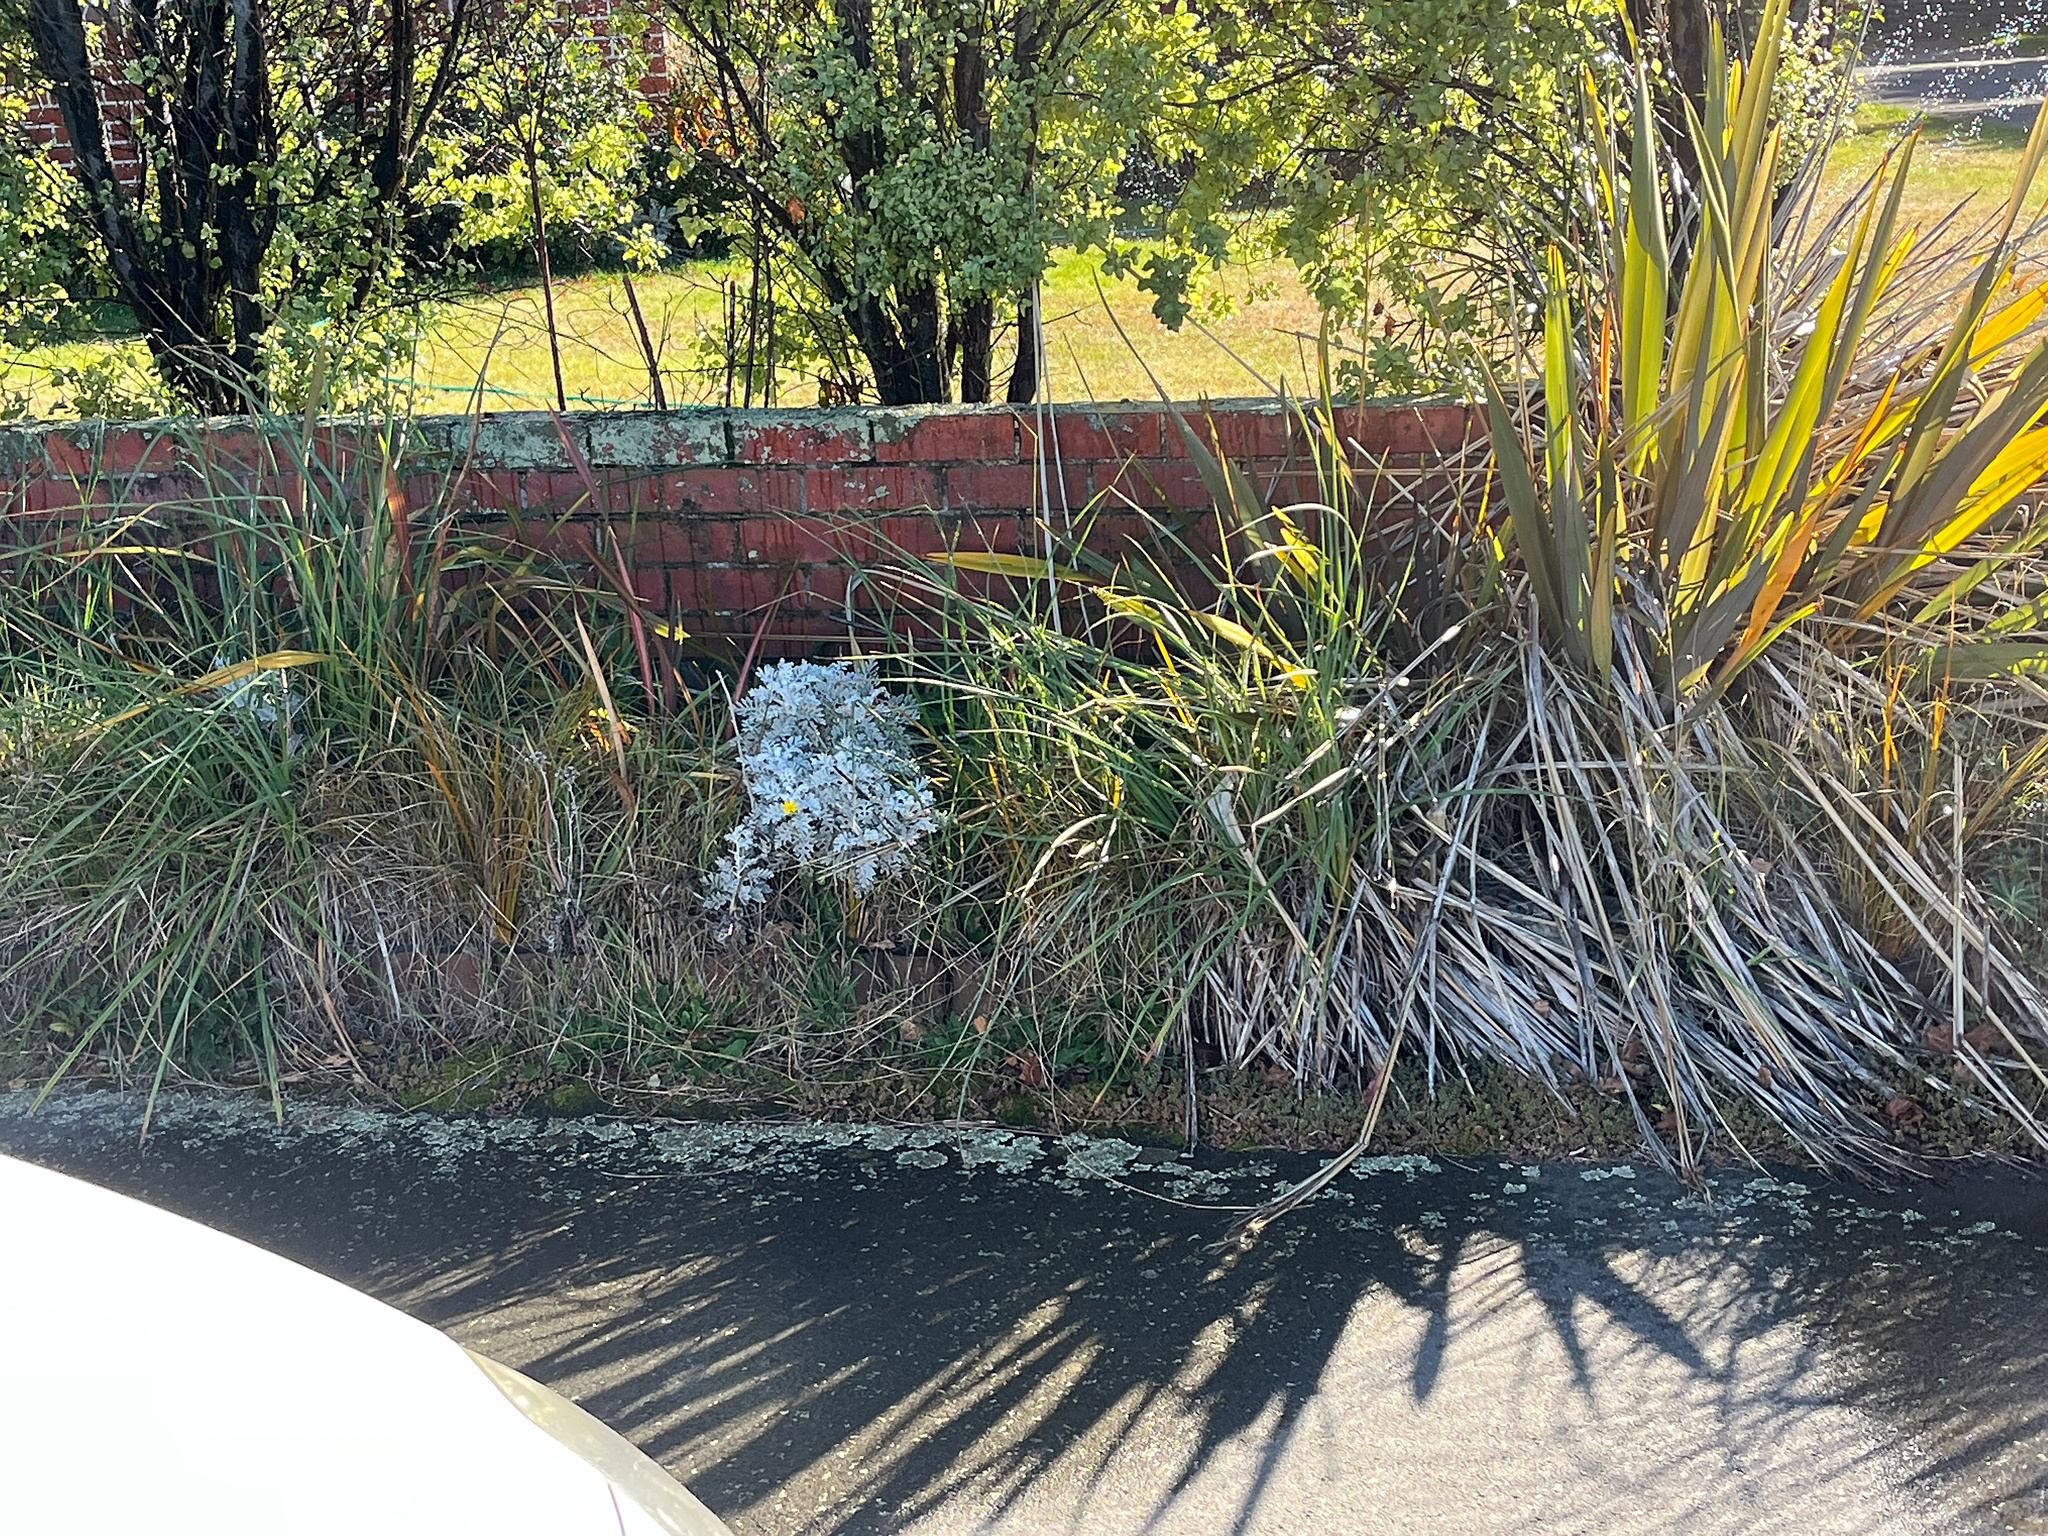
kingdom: Plantae
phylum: Tracheophyta
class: Magnoliopsida
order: Asterales
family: Asteraceae
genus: Jacobaea
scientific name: Jacobaea maritima
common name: Silver ragwort
